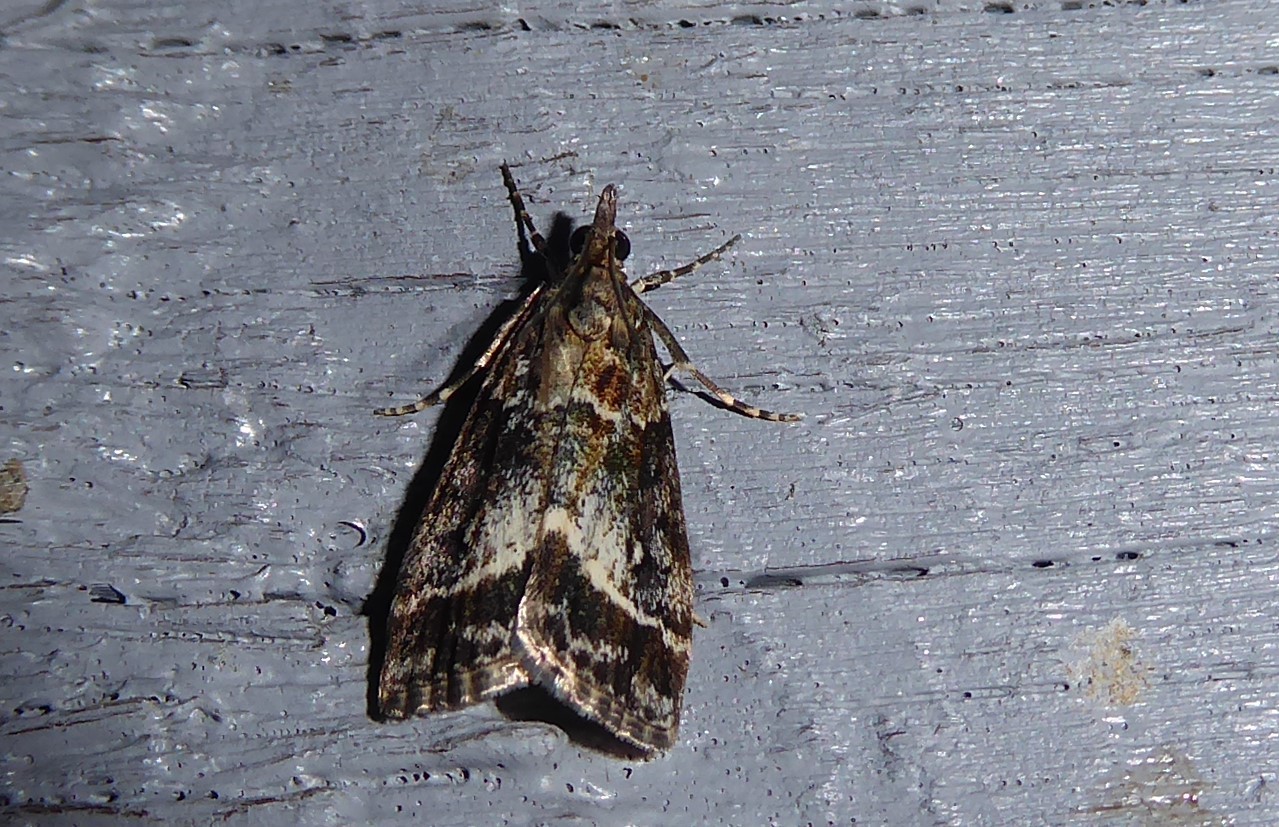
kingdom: Animalia
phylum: Arthropoda
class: Insecta
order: Lepidoptera
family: Crambidae
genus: Eudonia
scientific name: Eudonia legnota
